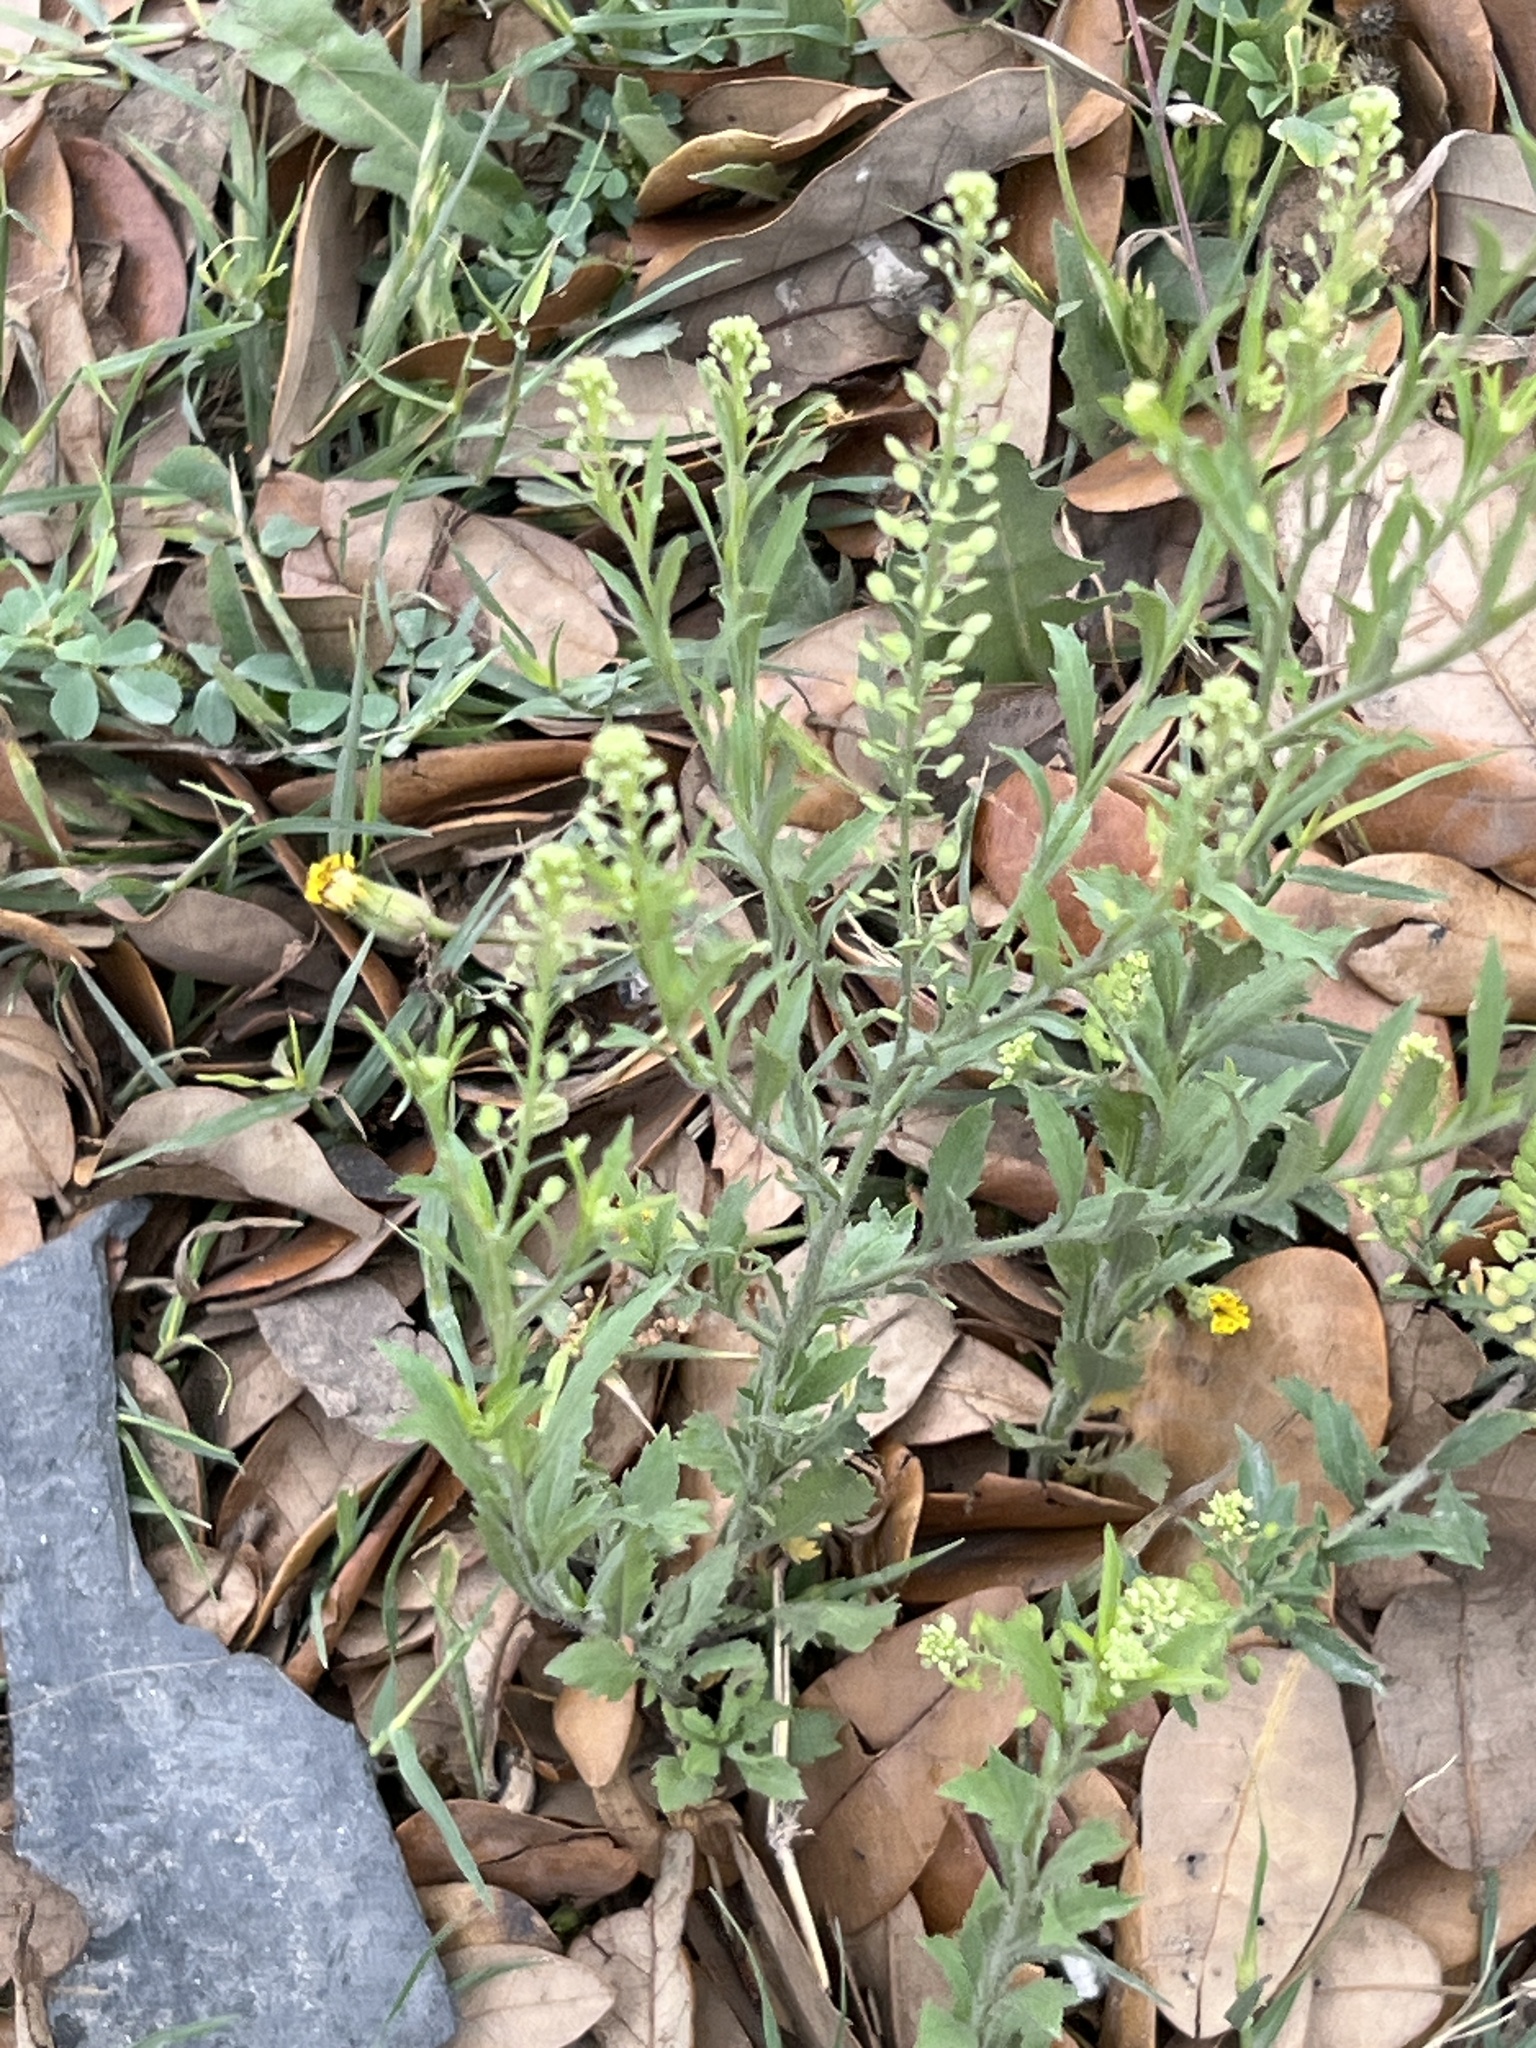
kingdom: Plantae
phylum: Tracheophyta
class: Magnoliopsida
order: Brassicales
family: Brassicaceae
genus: Lepidium
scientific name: Lepidium austrinum
